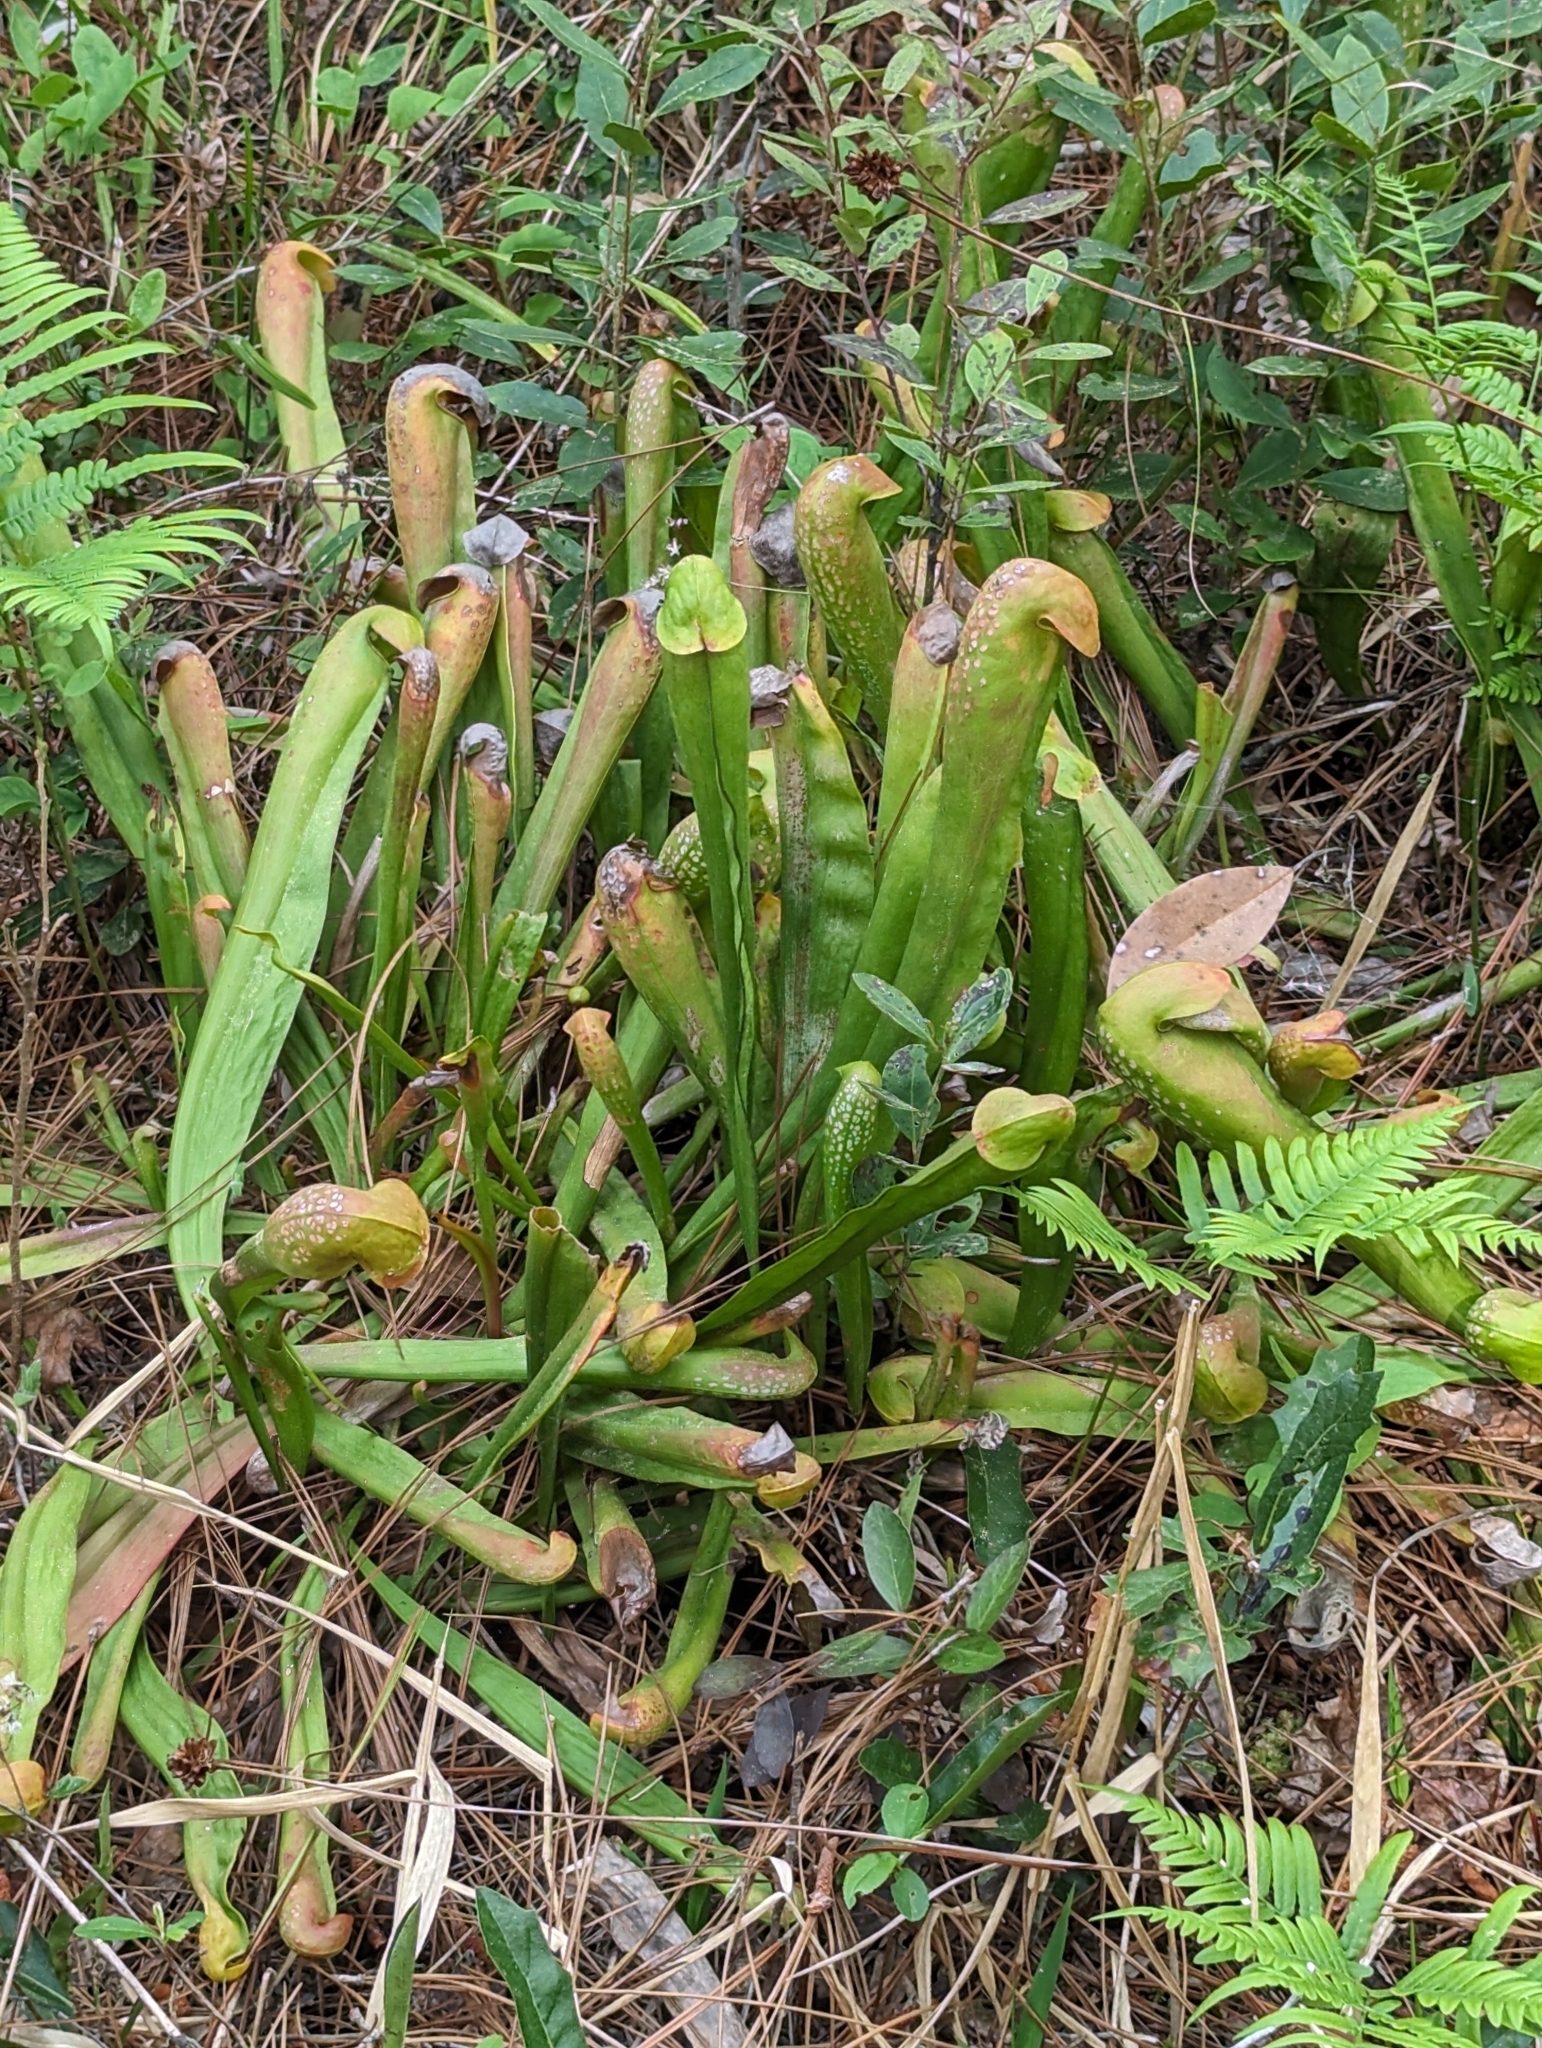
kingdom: Plantae
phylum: Tracheophyta
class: Magnoliopsida
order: Ericales
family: Sarraceniaceae
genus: Sarracenia
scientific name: Sarracenia minor
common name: Rainhat-trumpet
